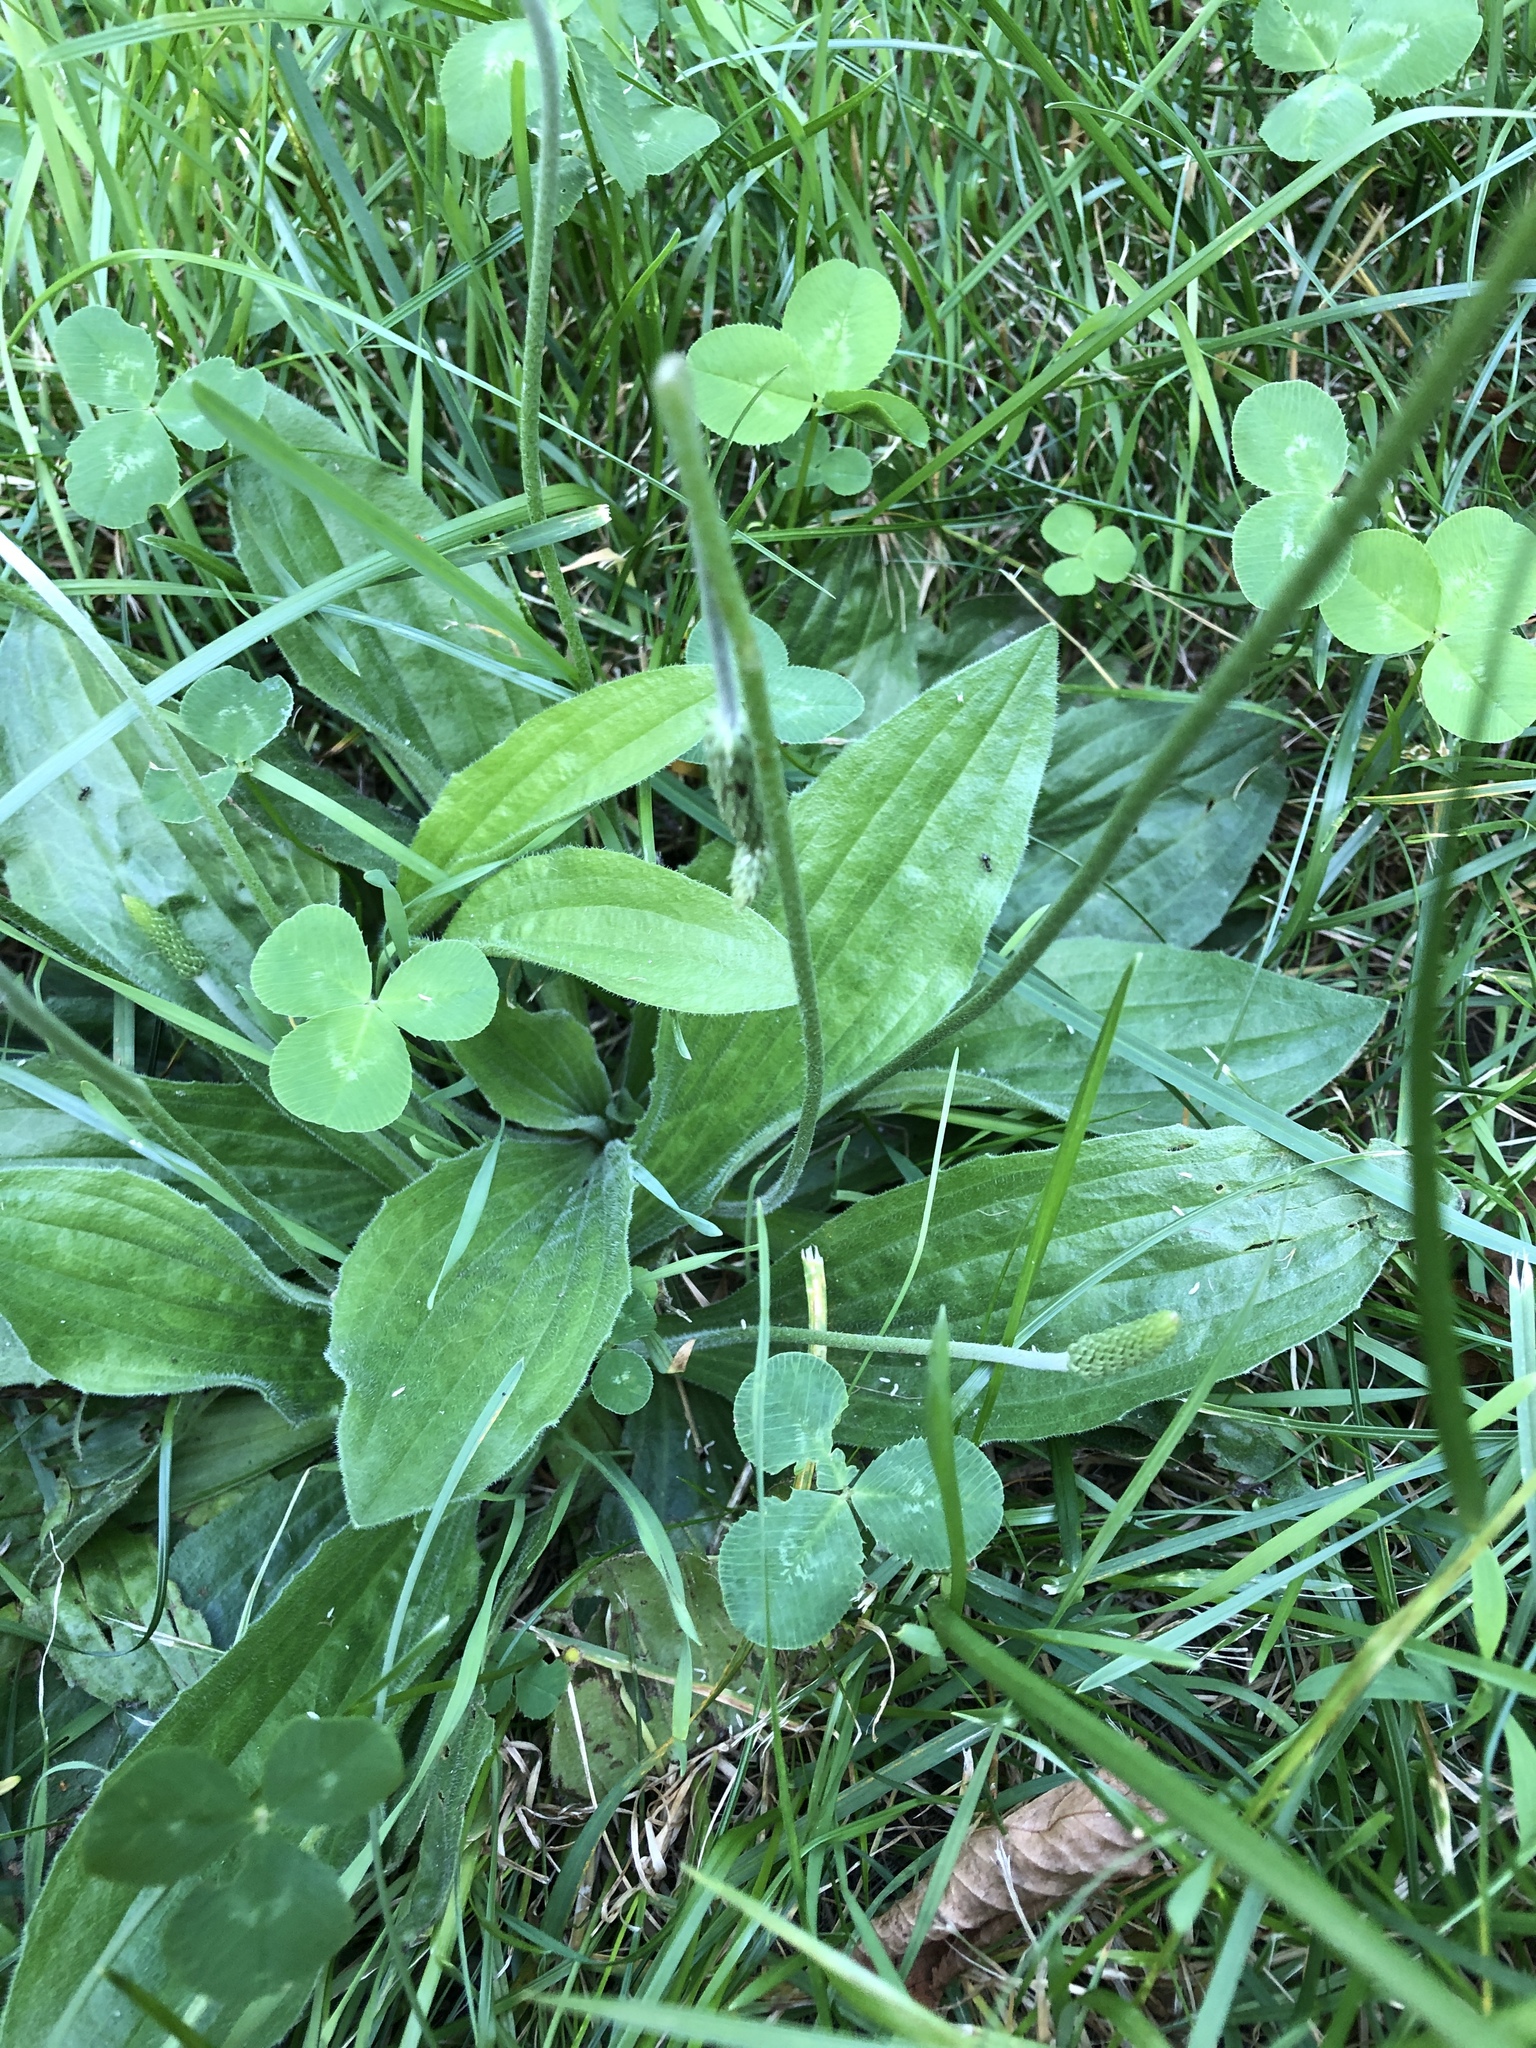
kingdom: Plantae
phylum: Tracheophyta
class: Magnoliopsida
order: Lamiales
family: Plantaginaceae
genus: Plantago
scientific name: Plantago media
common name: Hoary plantain
